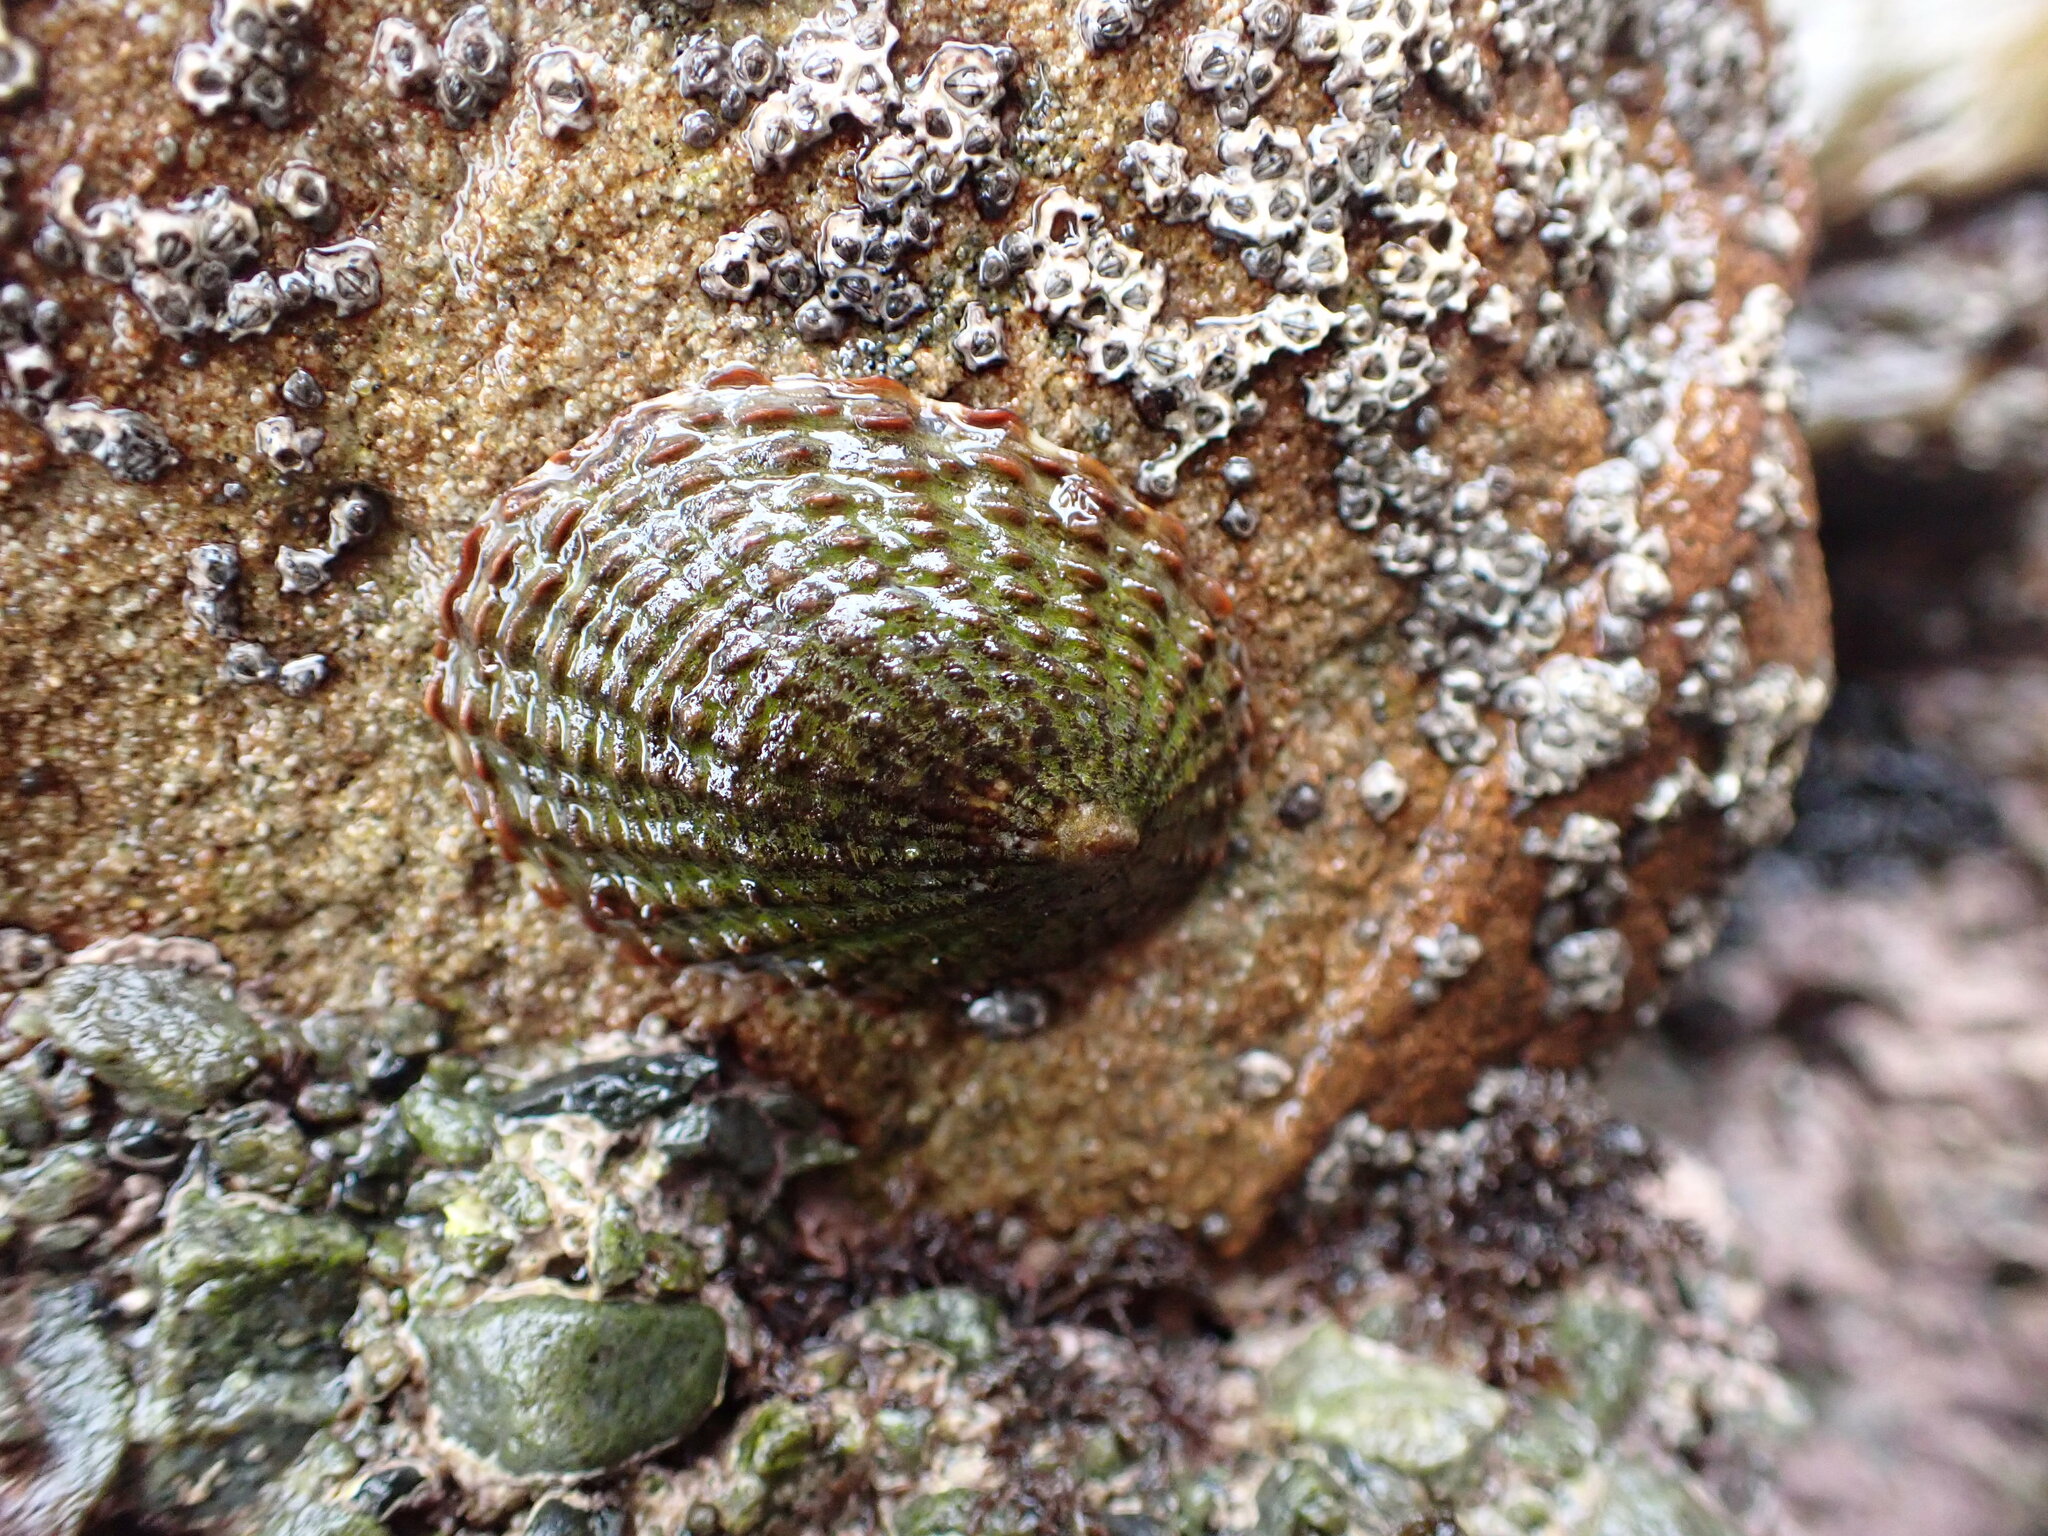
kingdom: Animalia
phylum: Mollusca
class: Gastropoda
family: Nacellidae
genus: Cellana
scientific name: Cellana denticulata
